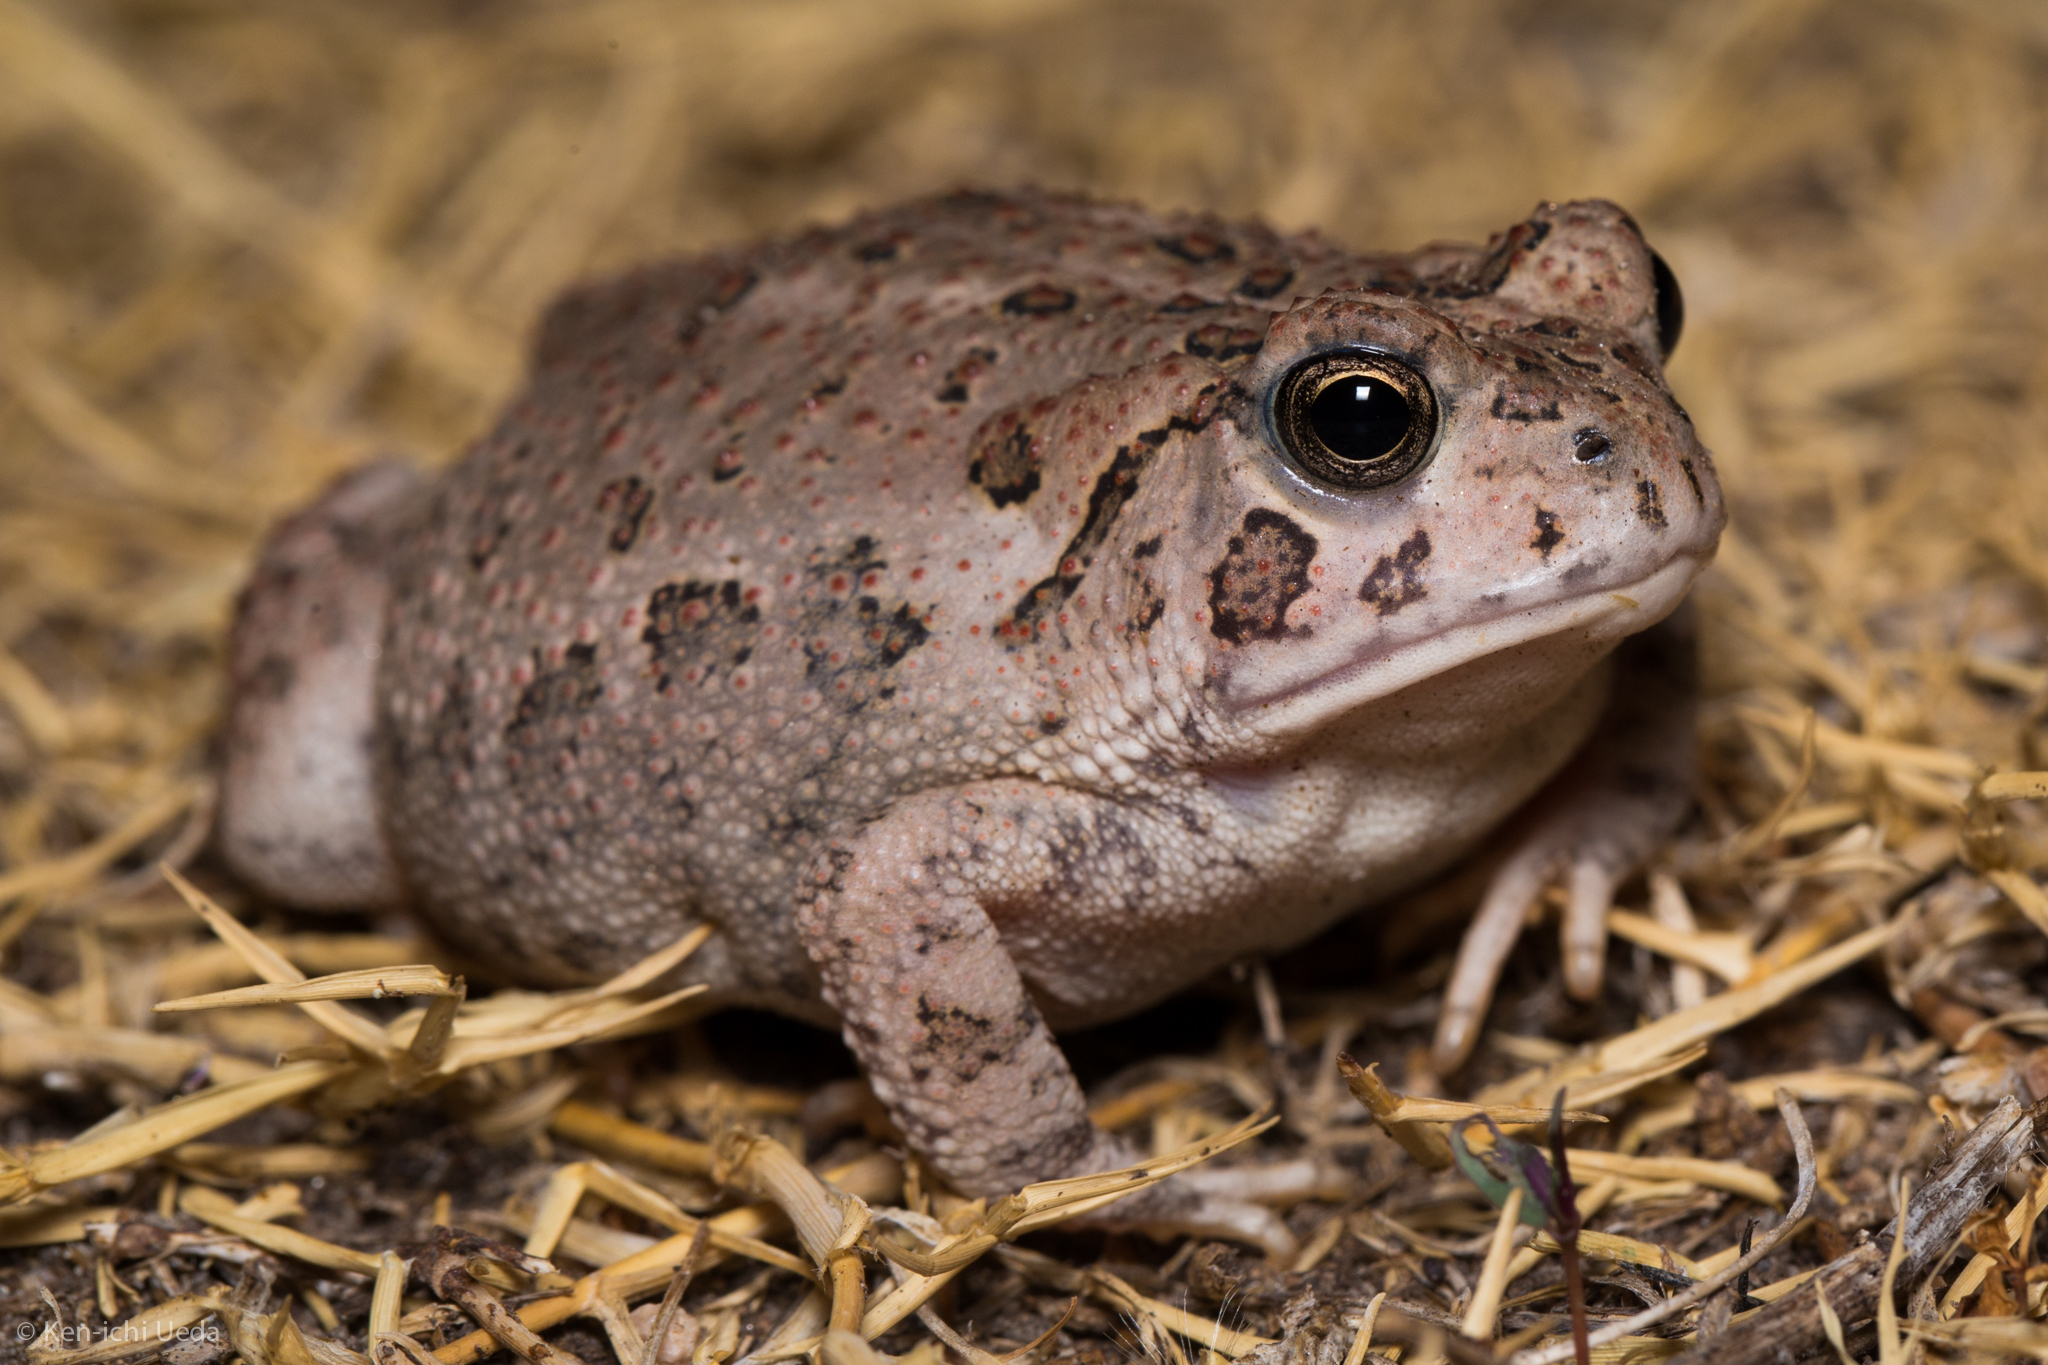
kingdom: Animalia
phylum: Chordata
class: Amphibia
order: Anura
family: Bufonidae
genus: Anaxyrus
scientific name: Anaxyrus woodhousii
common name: Woodhouse's toad
